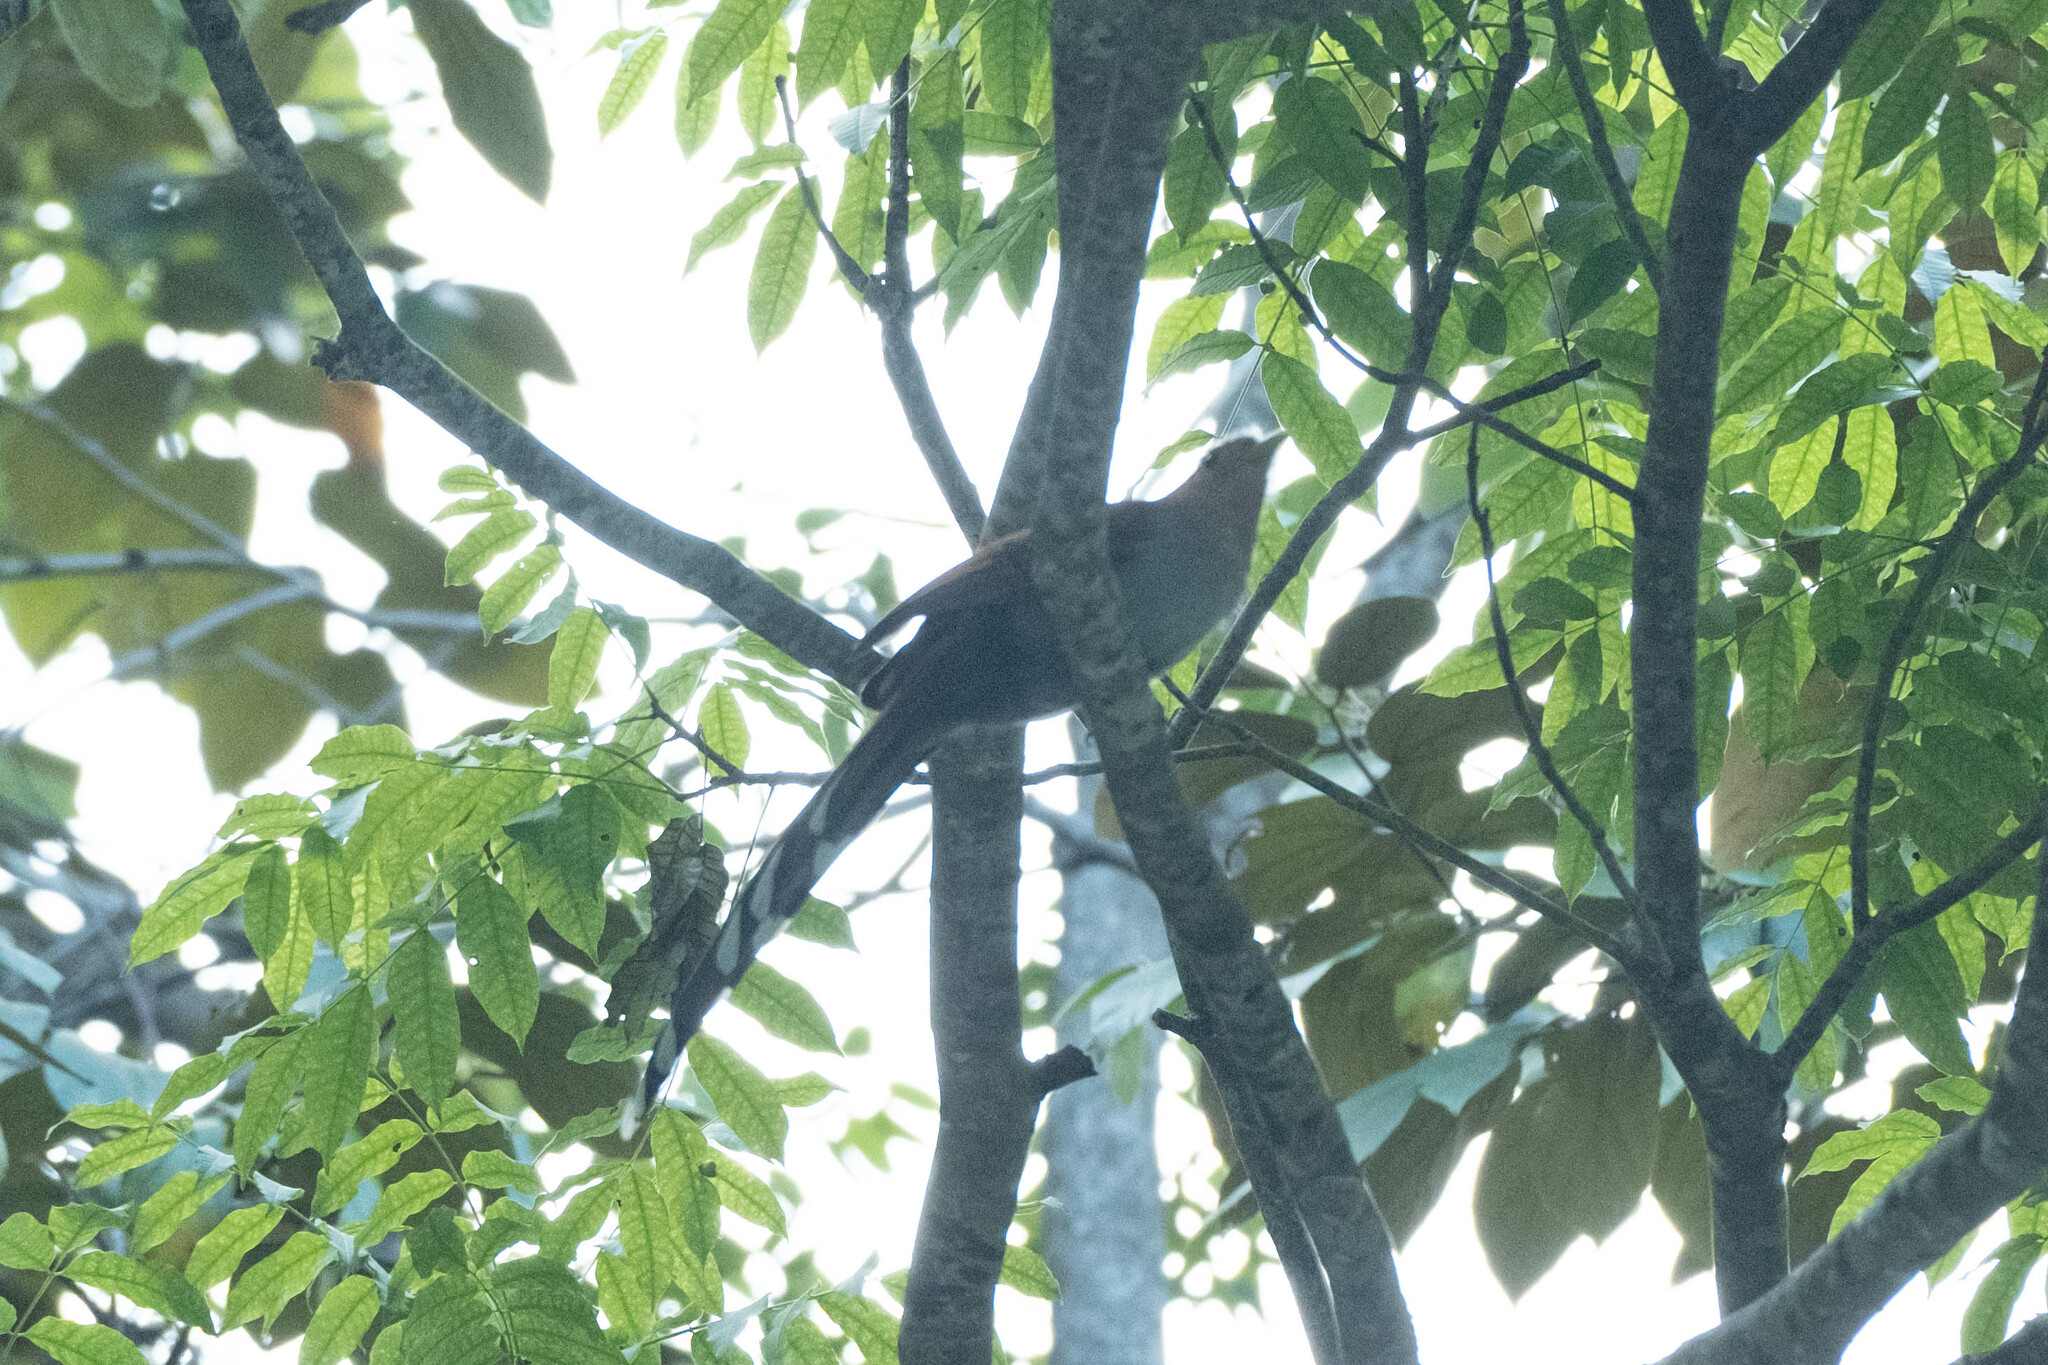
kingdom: Animalia
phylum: Chordata
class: Aves
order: Cuculiformes
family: Cuculidae
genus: Piaya
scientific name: Piaya cayana
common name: Squirrel cuckoo
